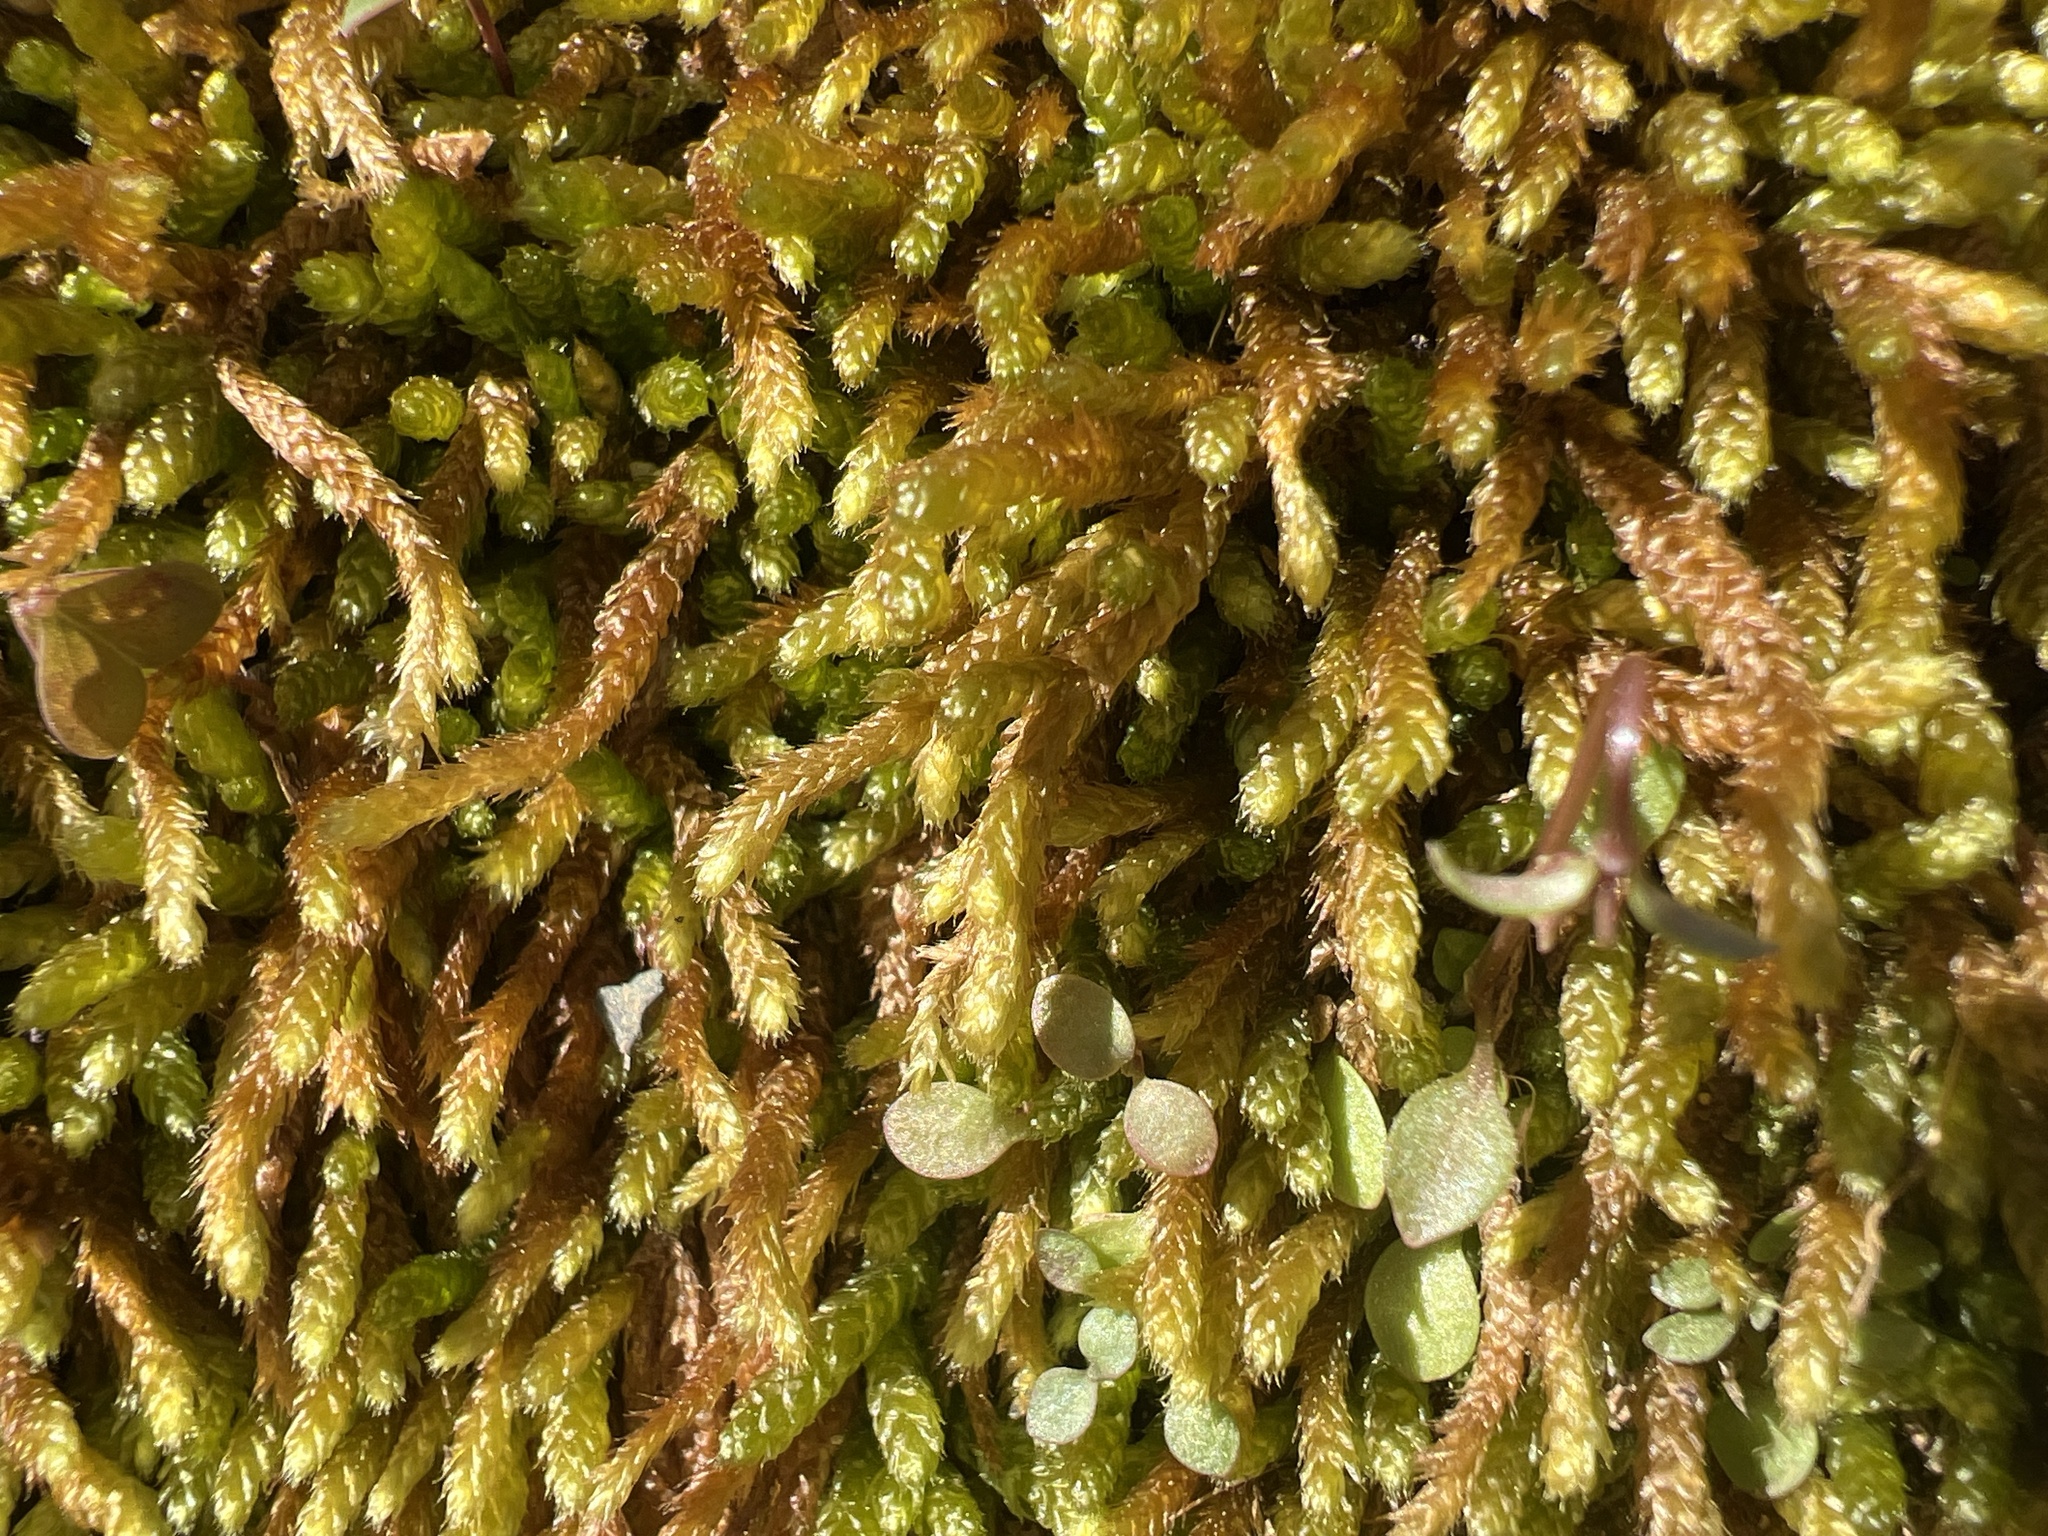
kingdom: Plantae
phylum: Bryophyta
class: Bryopsida
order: Hypnales
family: Brachytheciaceae
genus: Bryoandersonia
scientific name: Bryoandersonia illecebra
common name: Spoon-leaved moss
